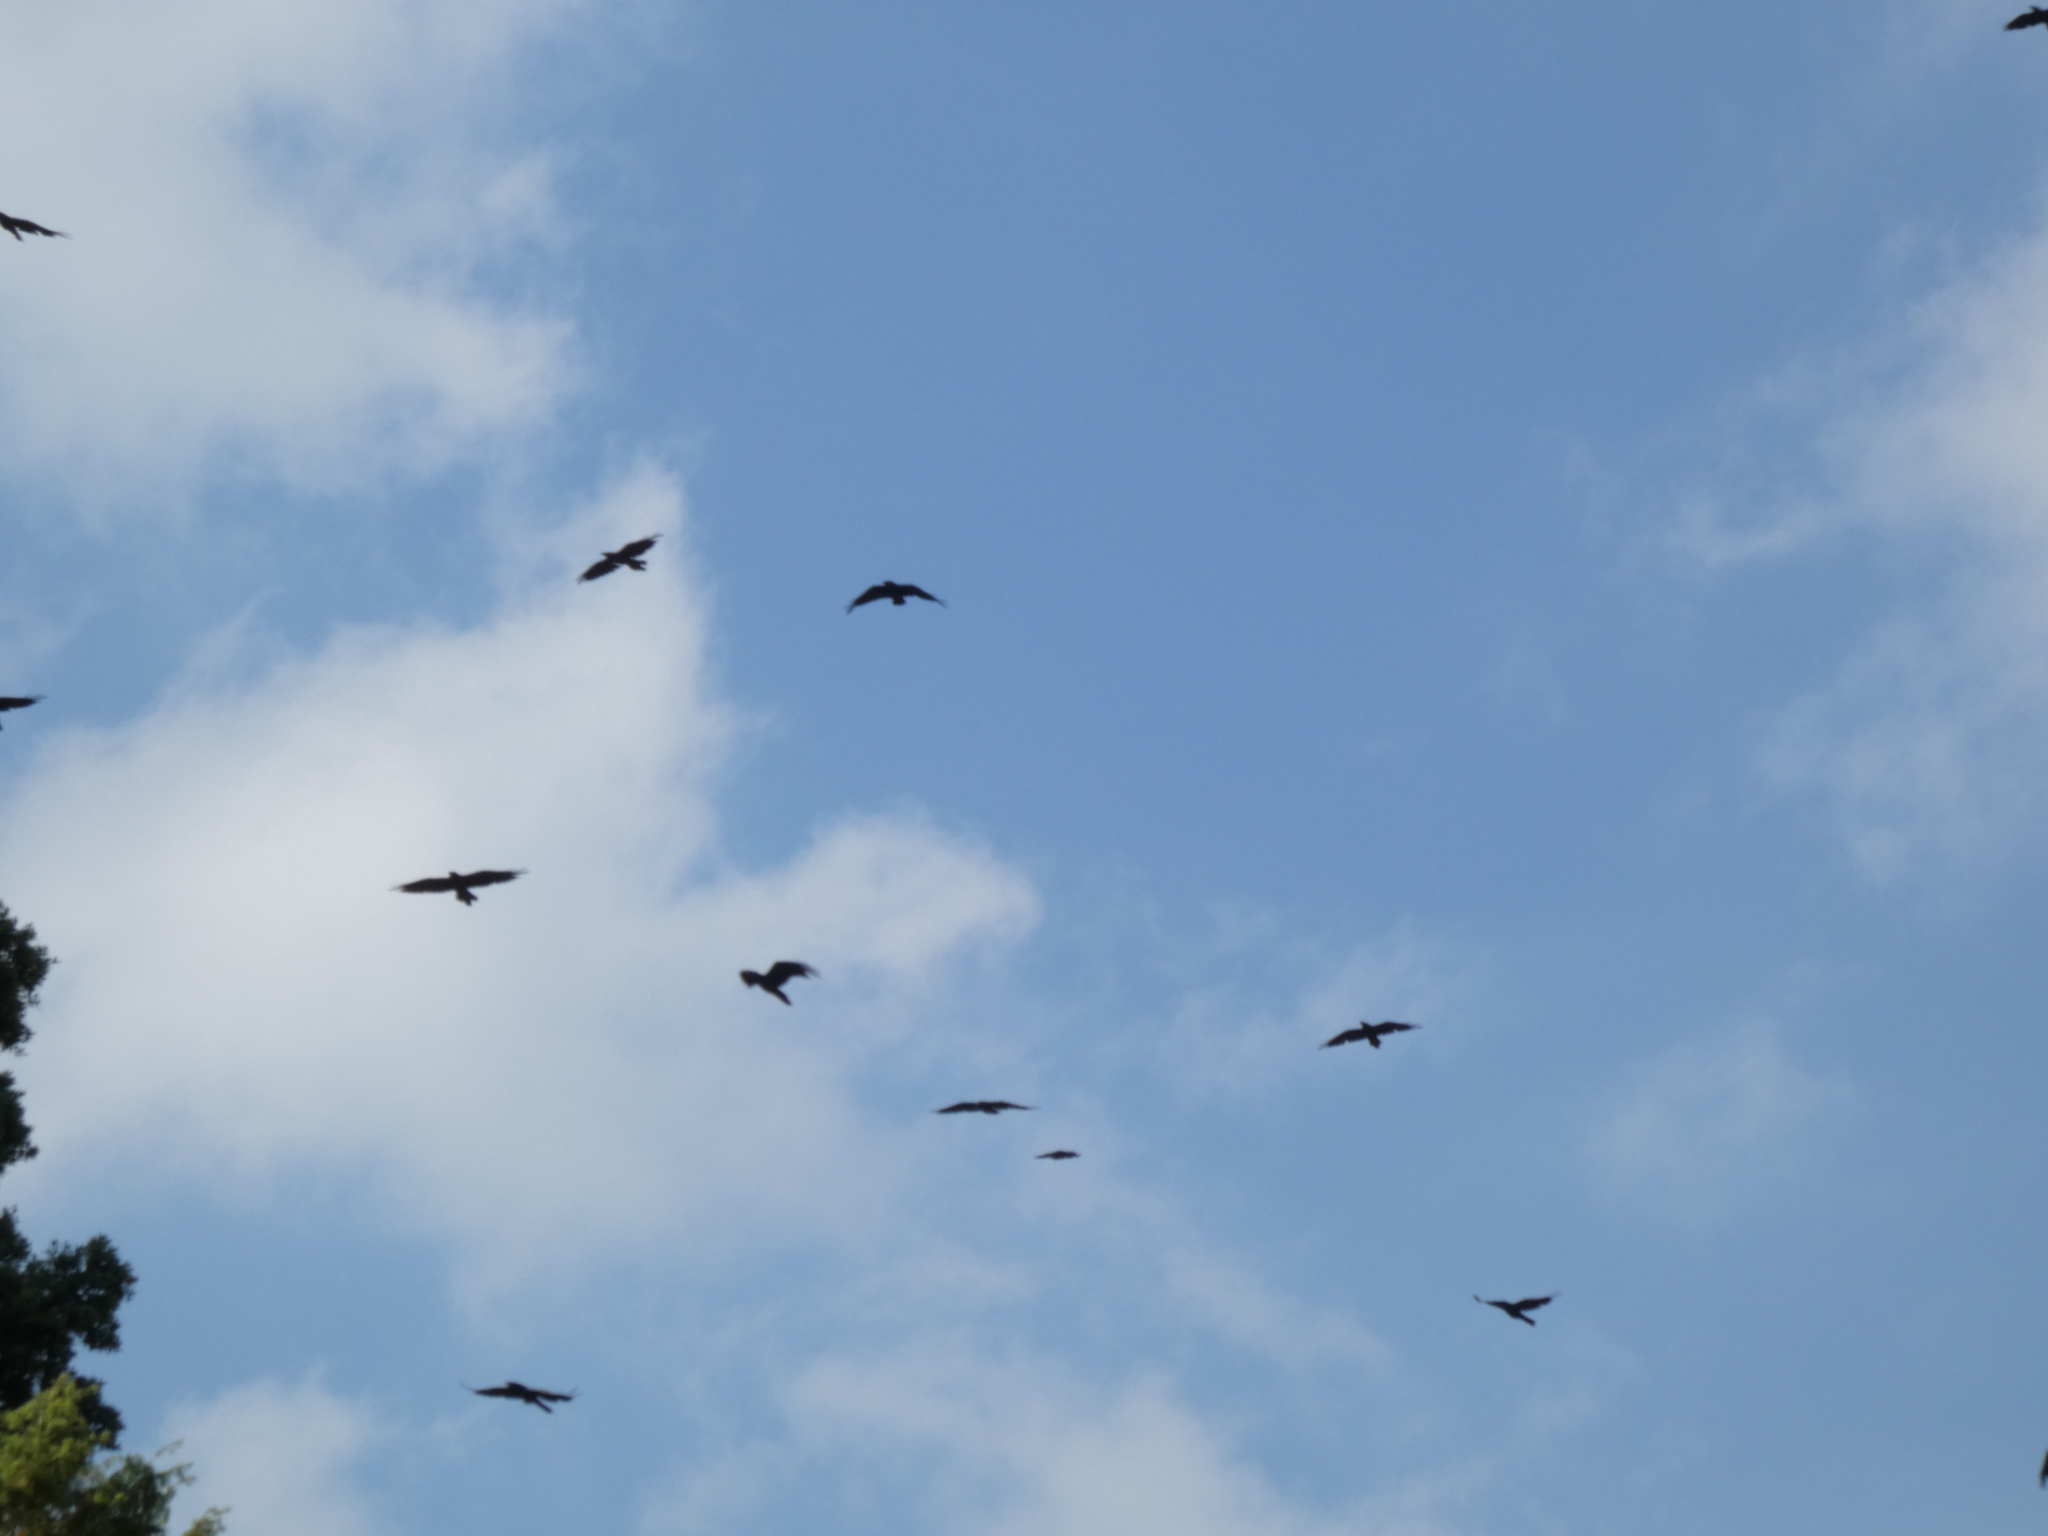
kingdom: Animalia
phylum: Chordata
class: Aves
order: Passeriformes
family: Corvidae
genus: Corvus
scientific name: Corvus corax
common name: Common raven
